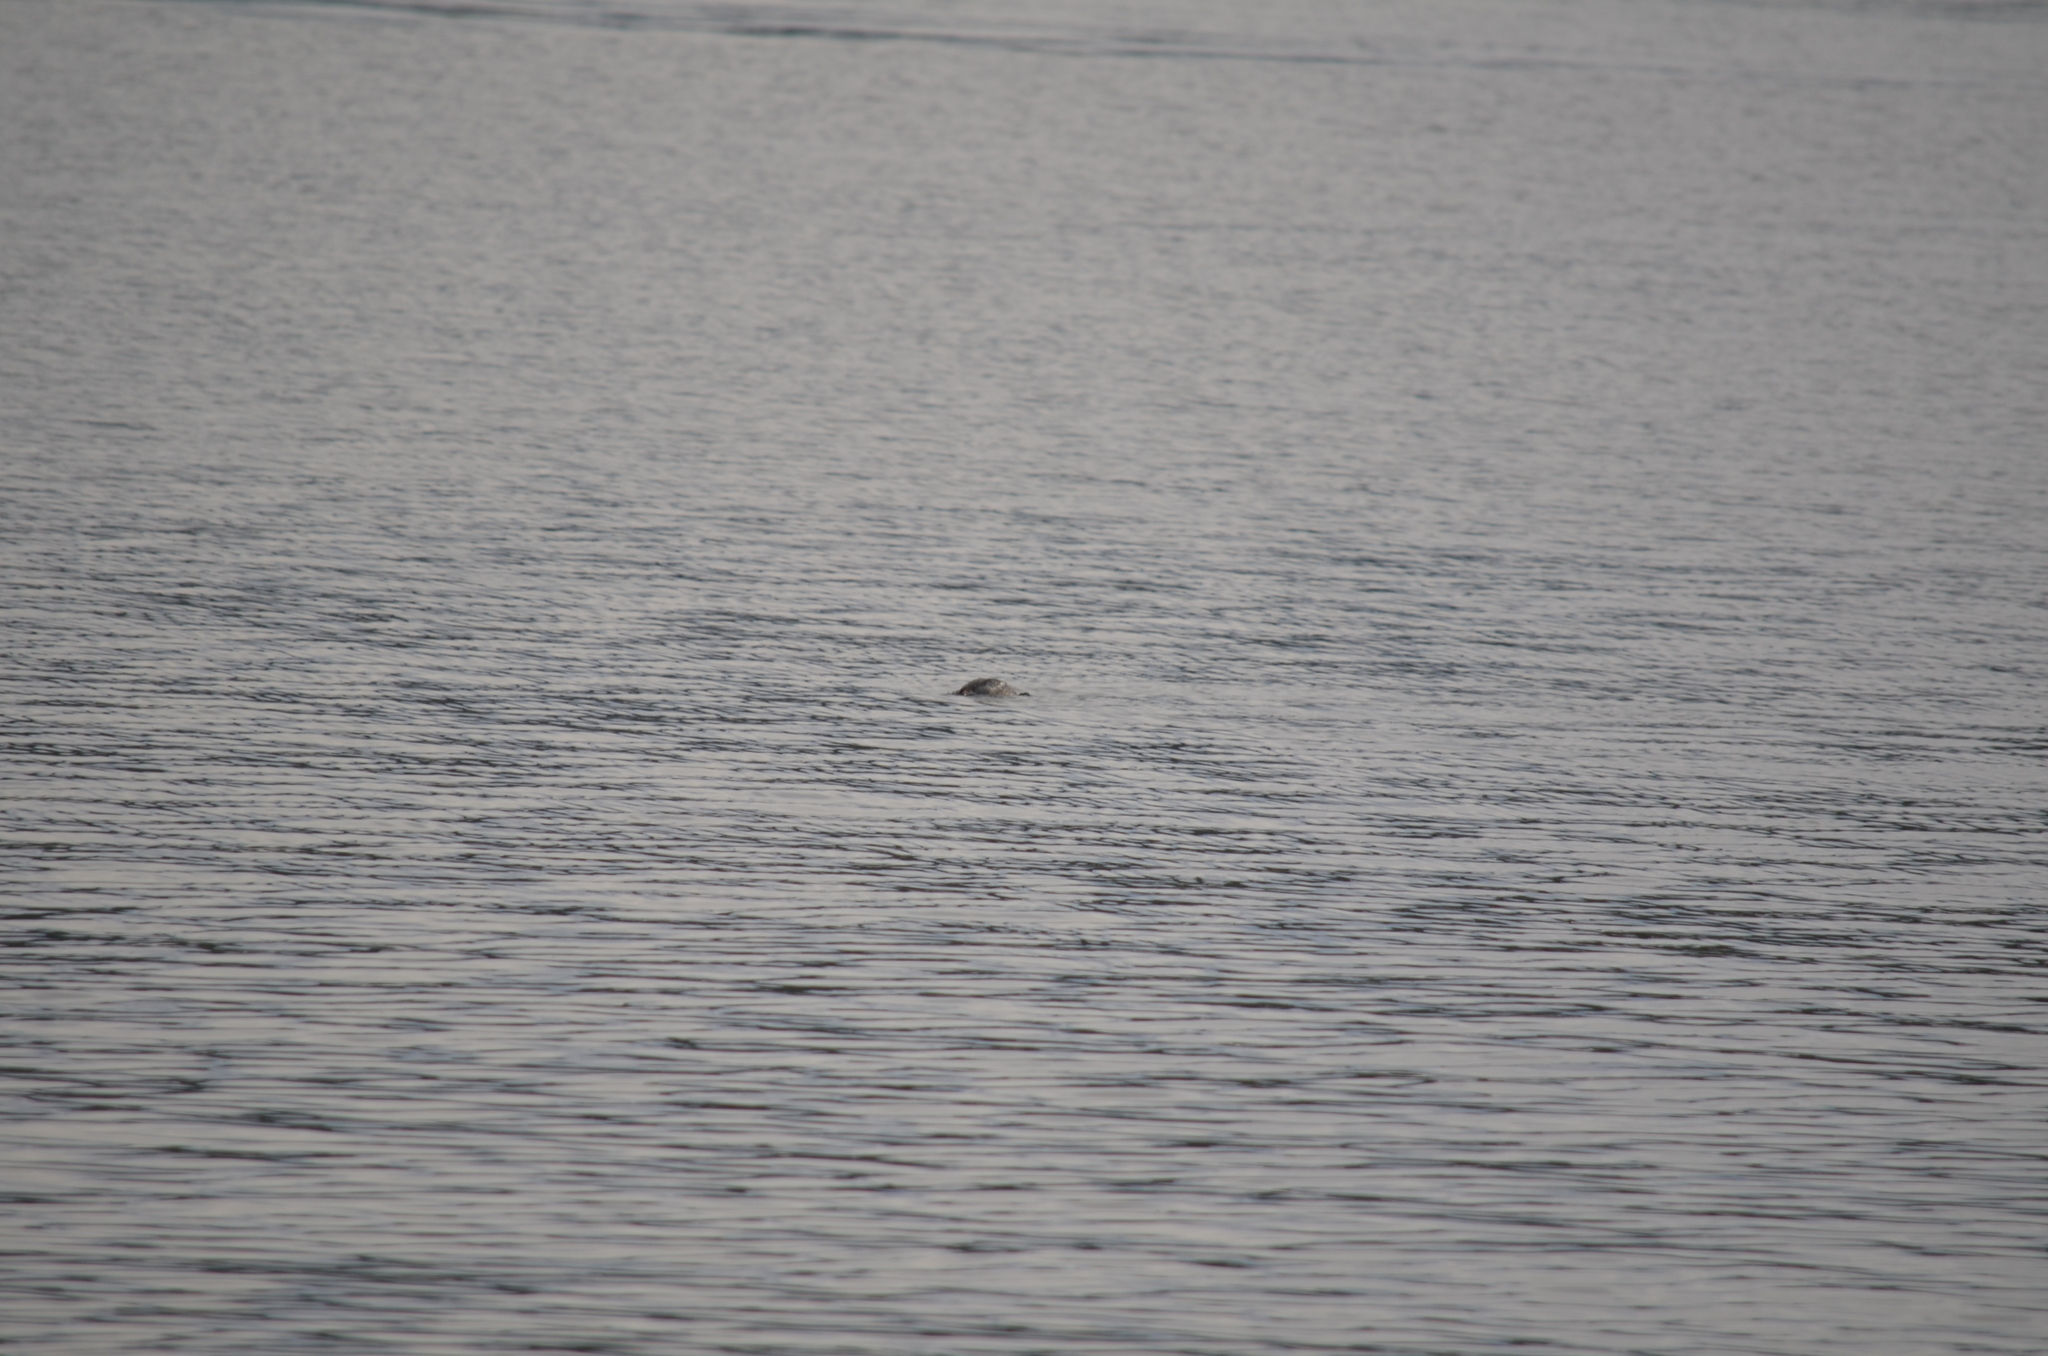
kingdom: Animalia
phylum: Chordata
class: Aves
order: Anseriformes
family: Anatidae
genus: Bucephala
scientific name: Bucephala clangula
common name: Common goldeneye
